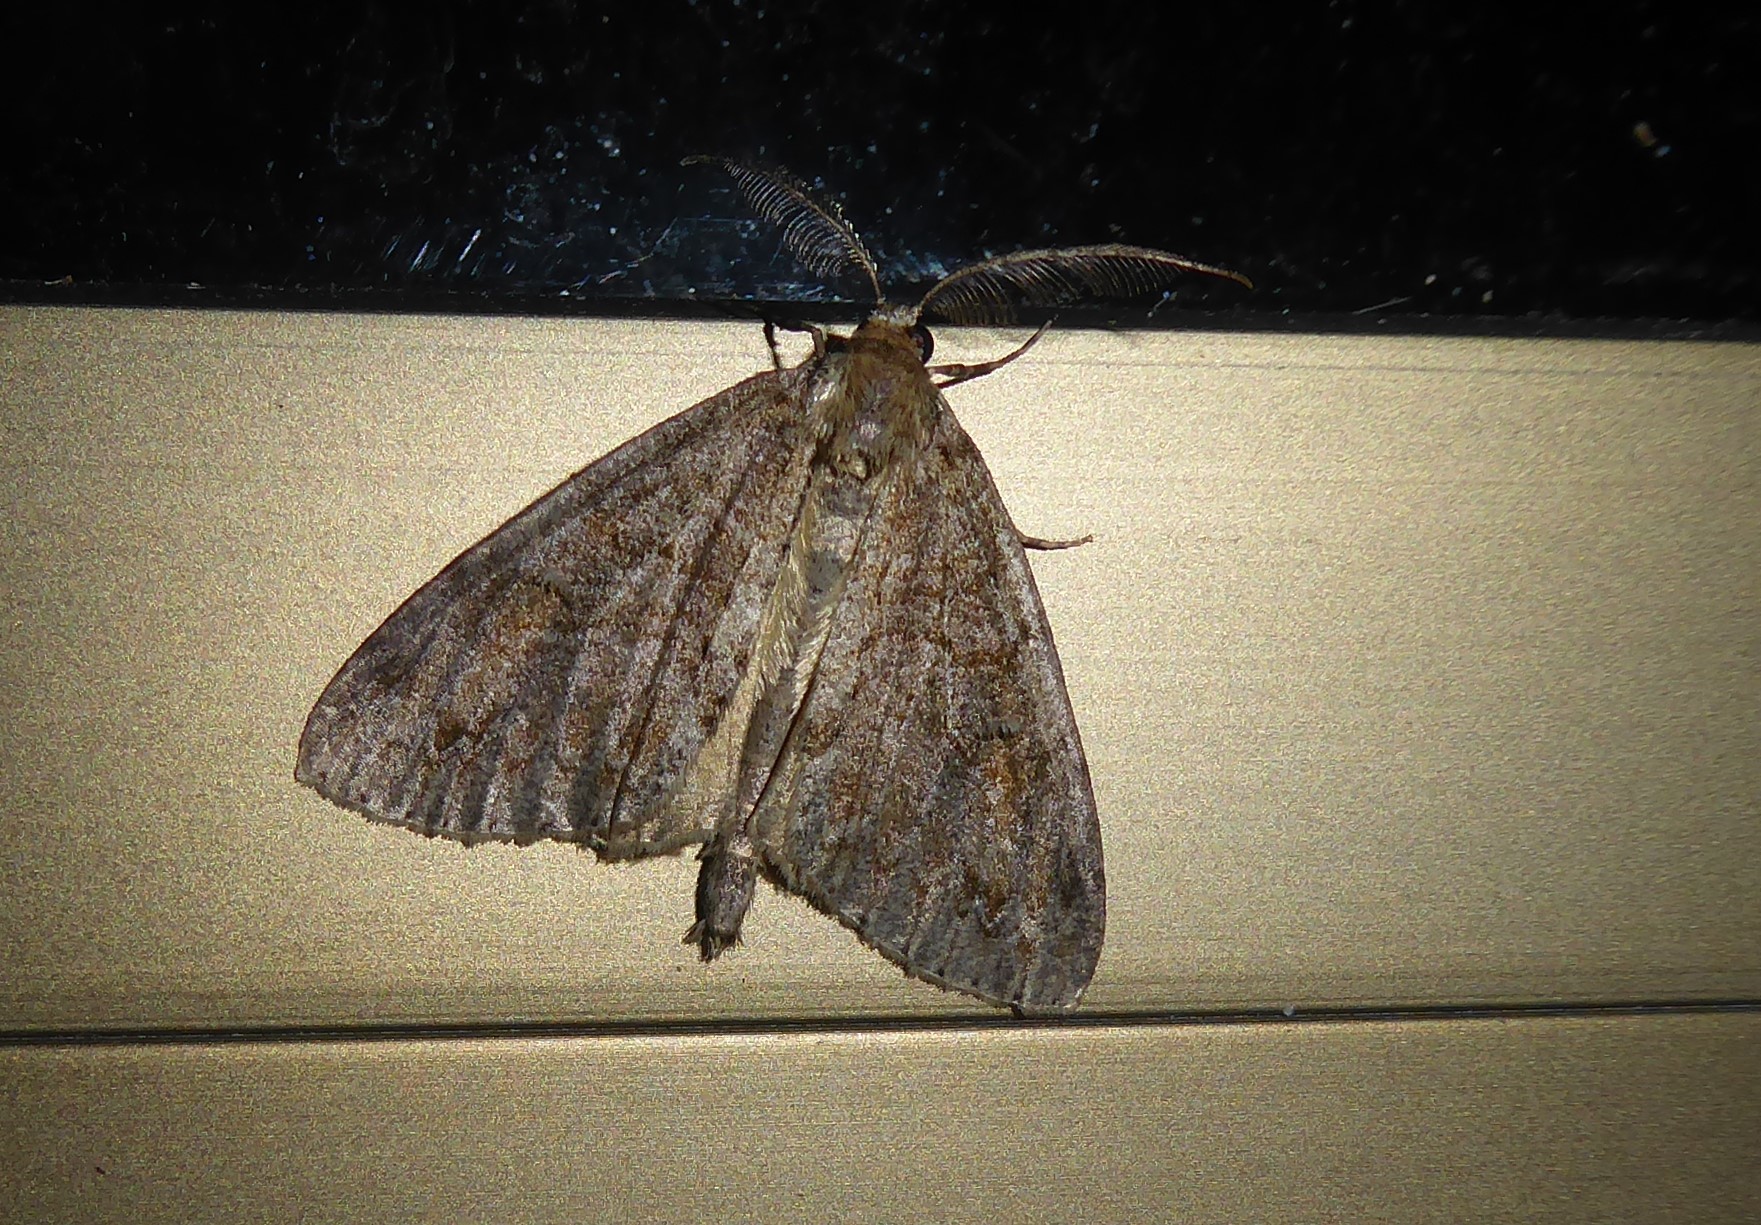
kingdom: Animalia
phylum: Arthropoda
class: Insecta
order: Lepidoptera
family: Geometridae
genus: Pseudocoremia
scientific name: Pseudocoremia suavis
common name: Common forest looper
